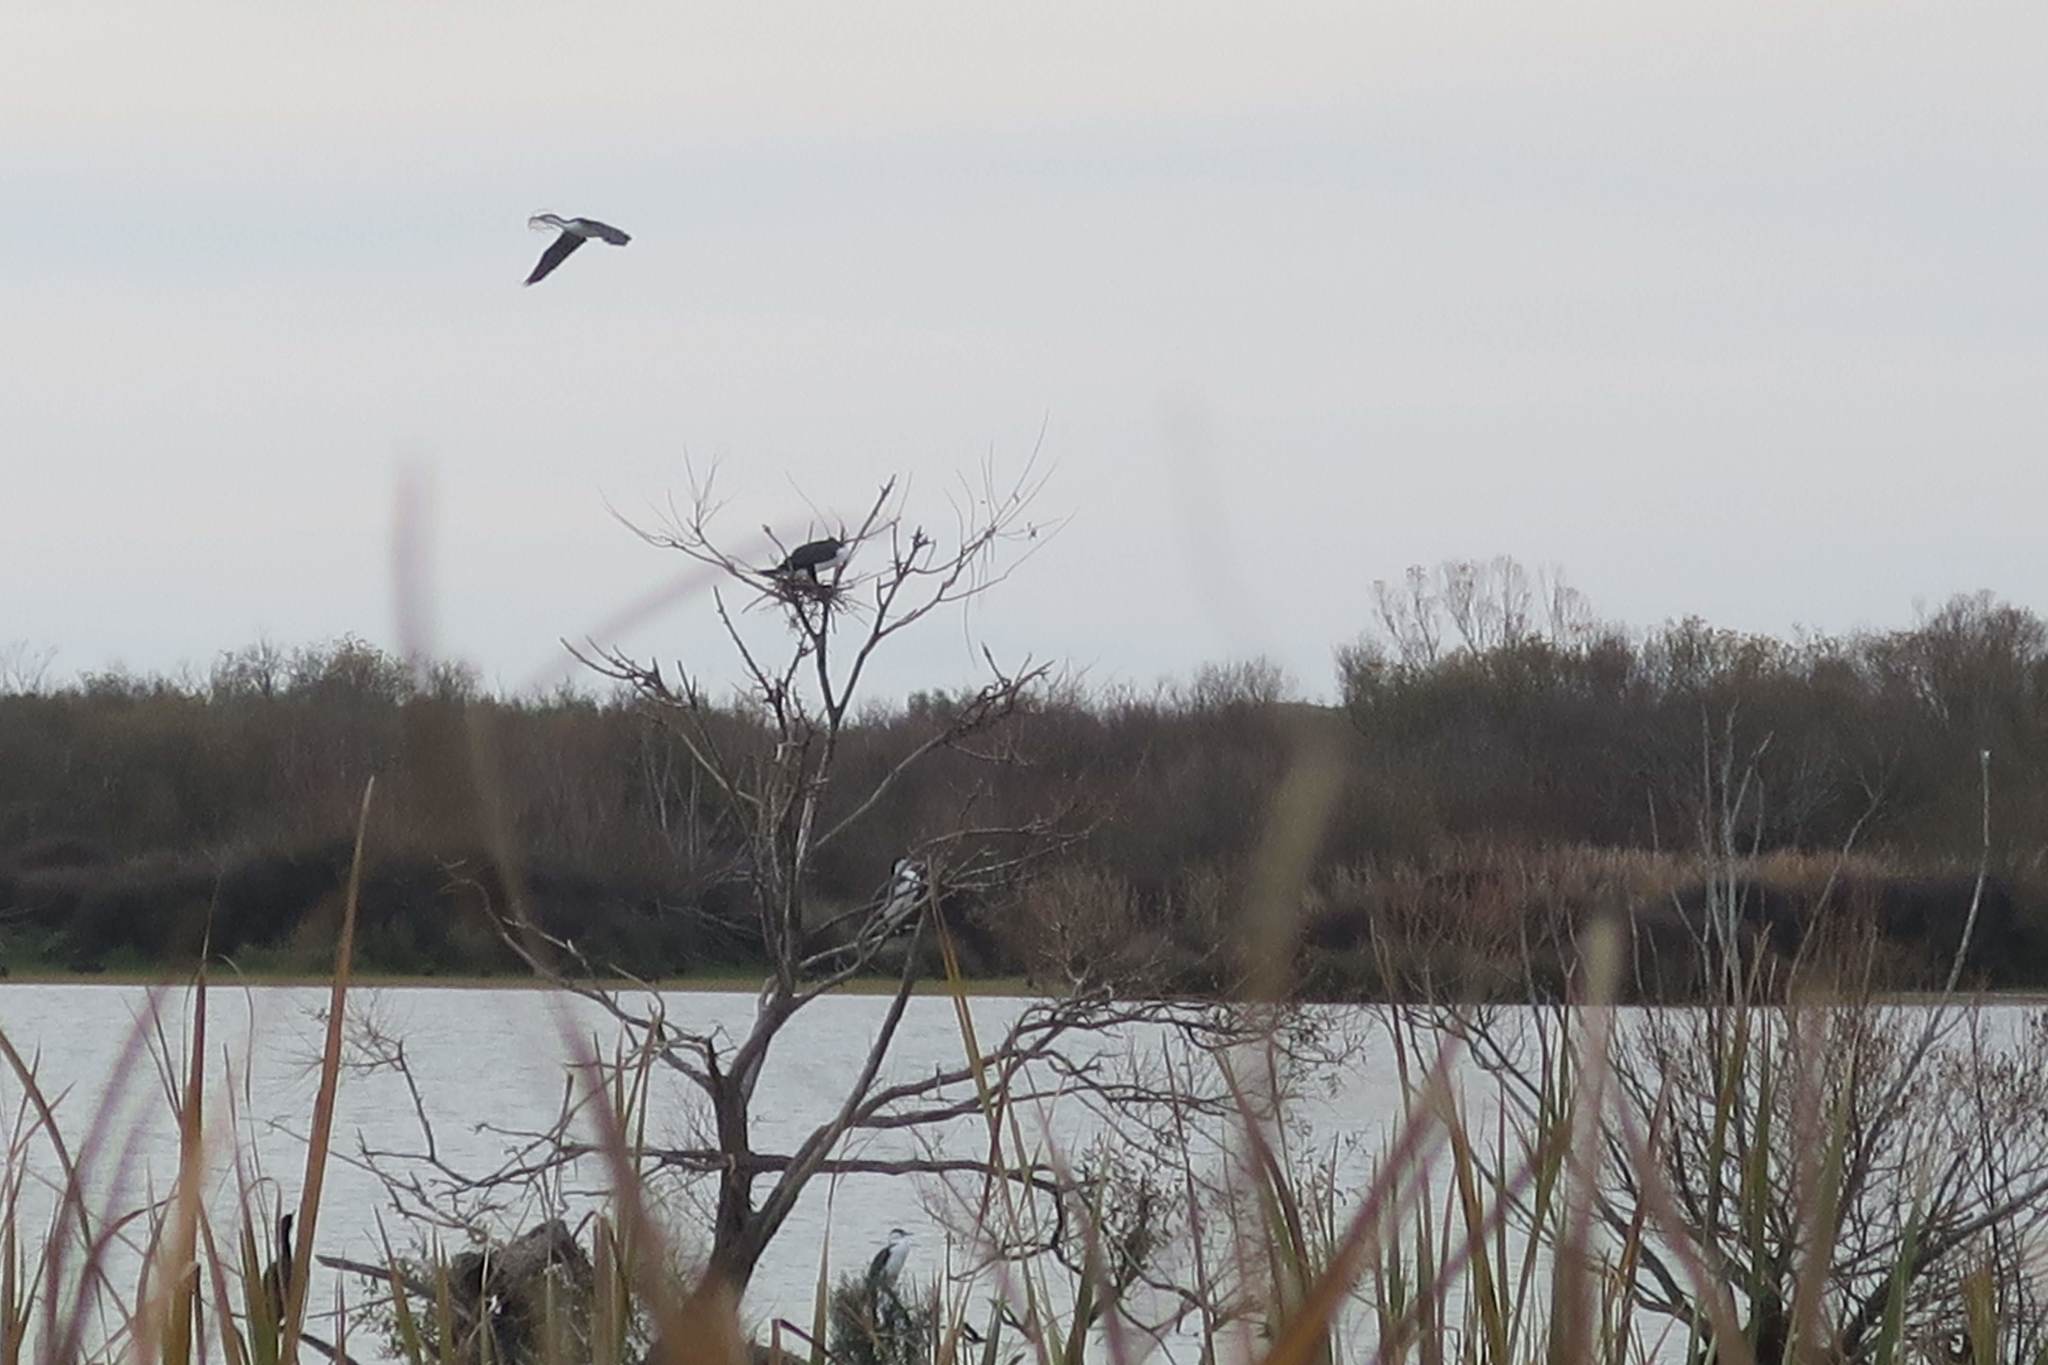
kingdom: Animalia
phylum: Chordata
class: Aves
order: Suliformes
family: Phalacrocoracidae
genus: Phalacrocorax
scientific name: Phalacrocorax varius
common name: Pied cormorant
